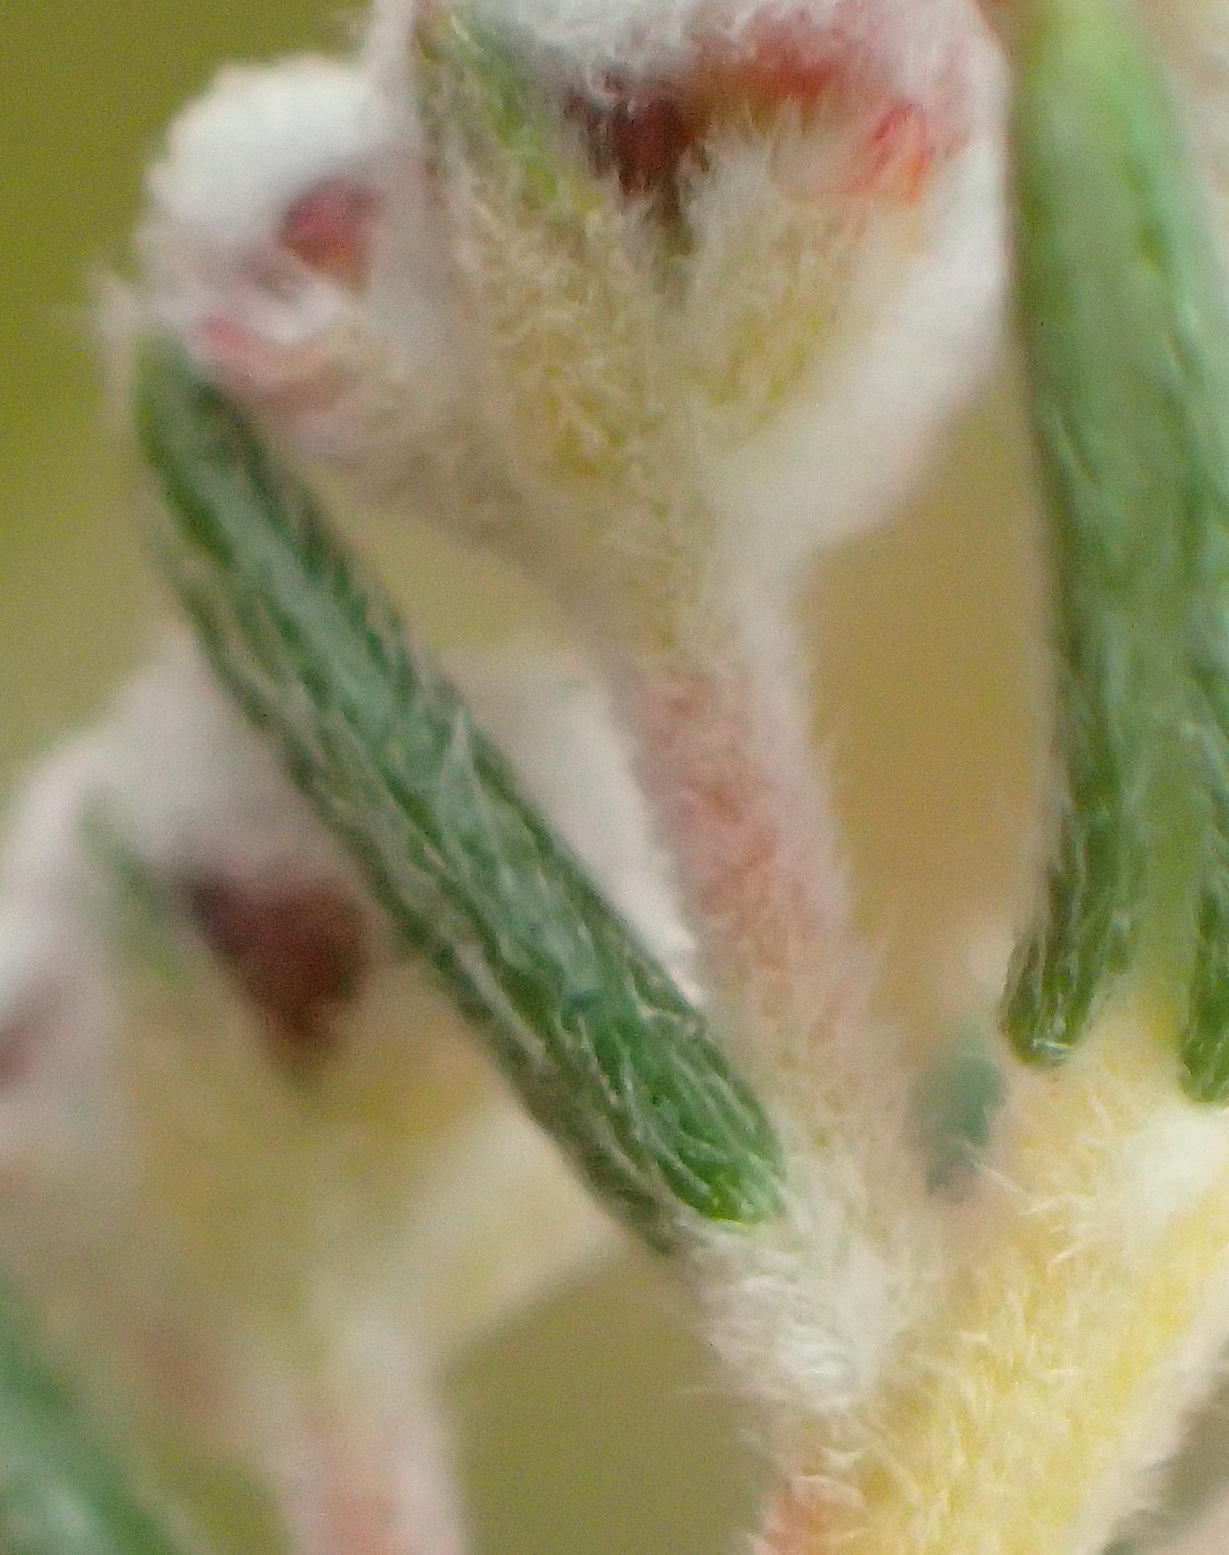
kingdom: Plantae
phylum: Tracheophyta
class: Magnoliopsida
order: Rosales
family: Rhamnaceae
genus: Phylica
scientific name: Phylica karroica
